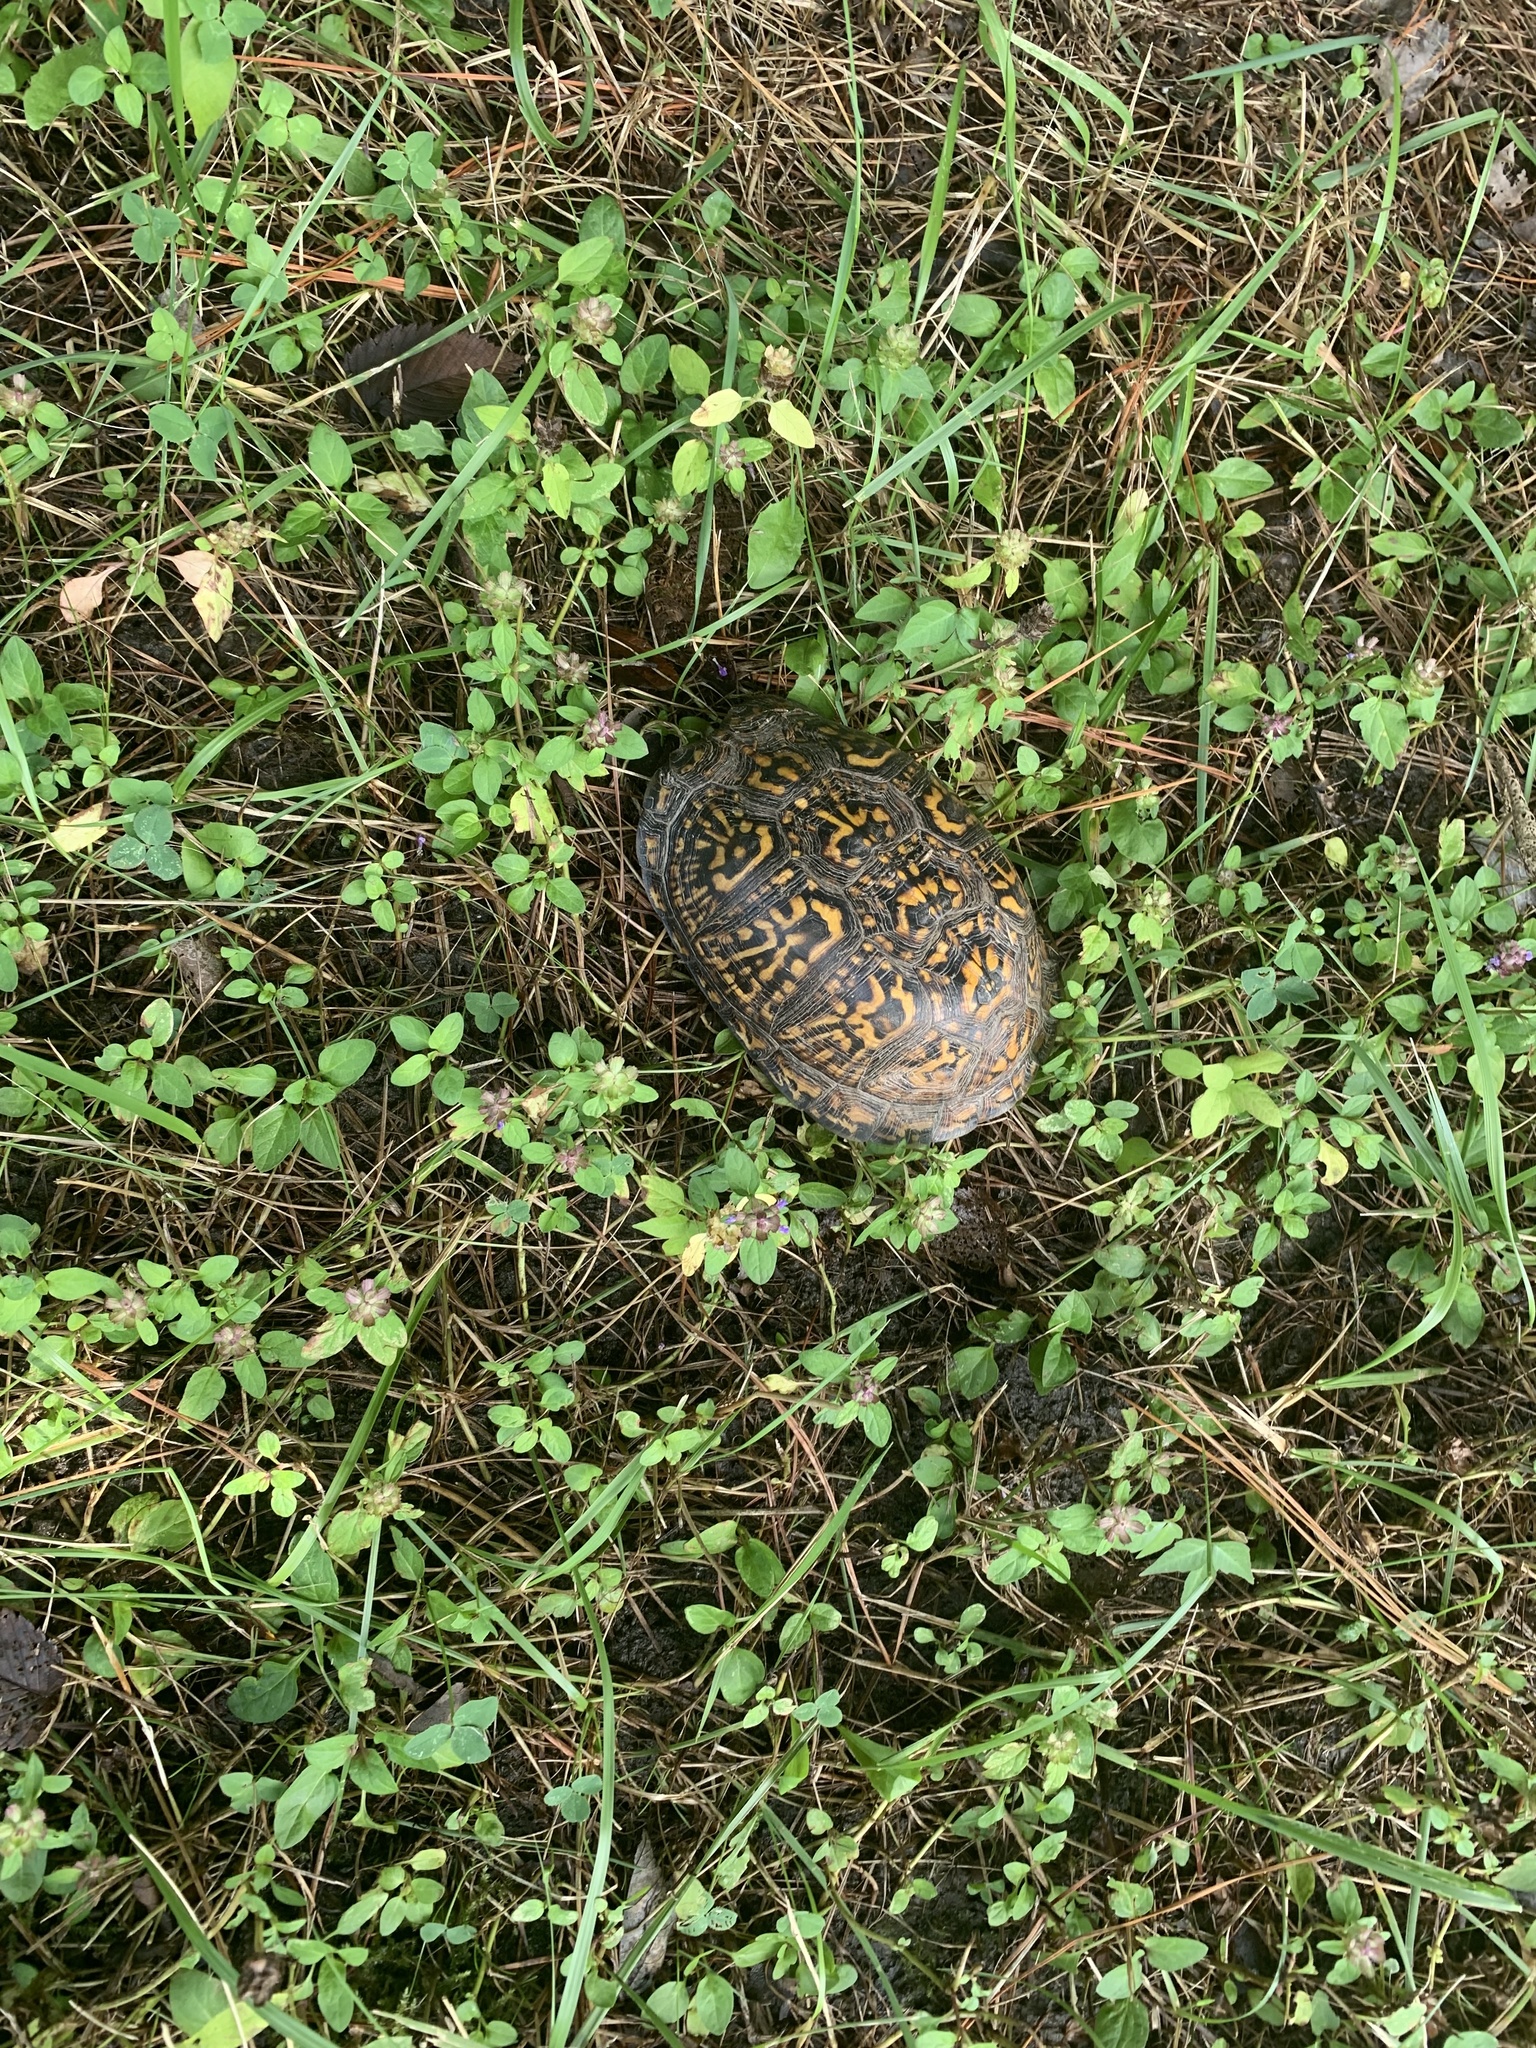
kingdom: Animalia
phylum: Chordata
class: Testudines
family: Emydidae
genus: Terrapene
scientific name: Terrapene carolina
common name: Common box turtle
